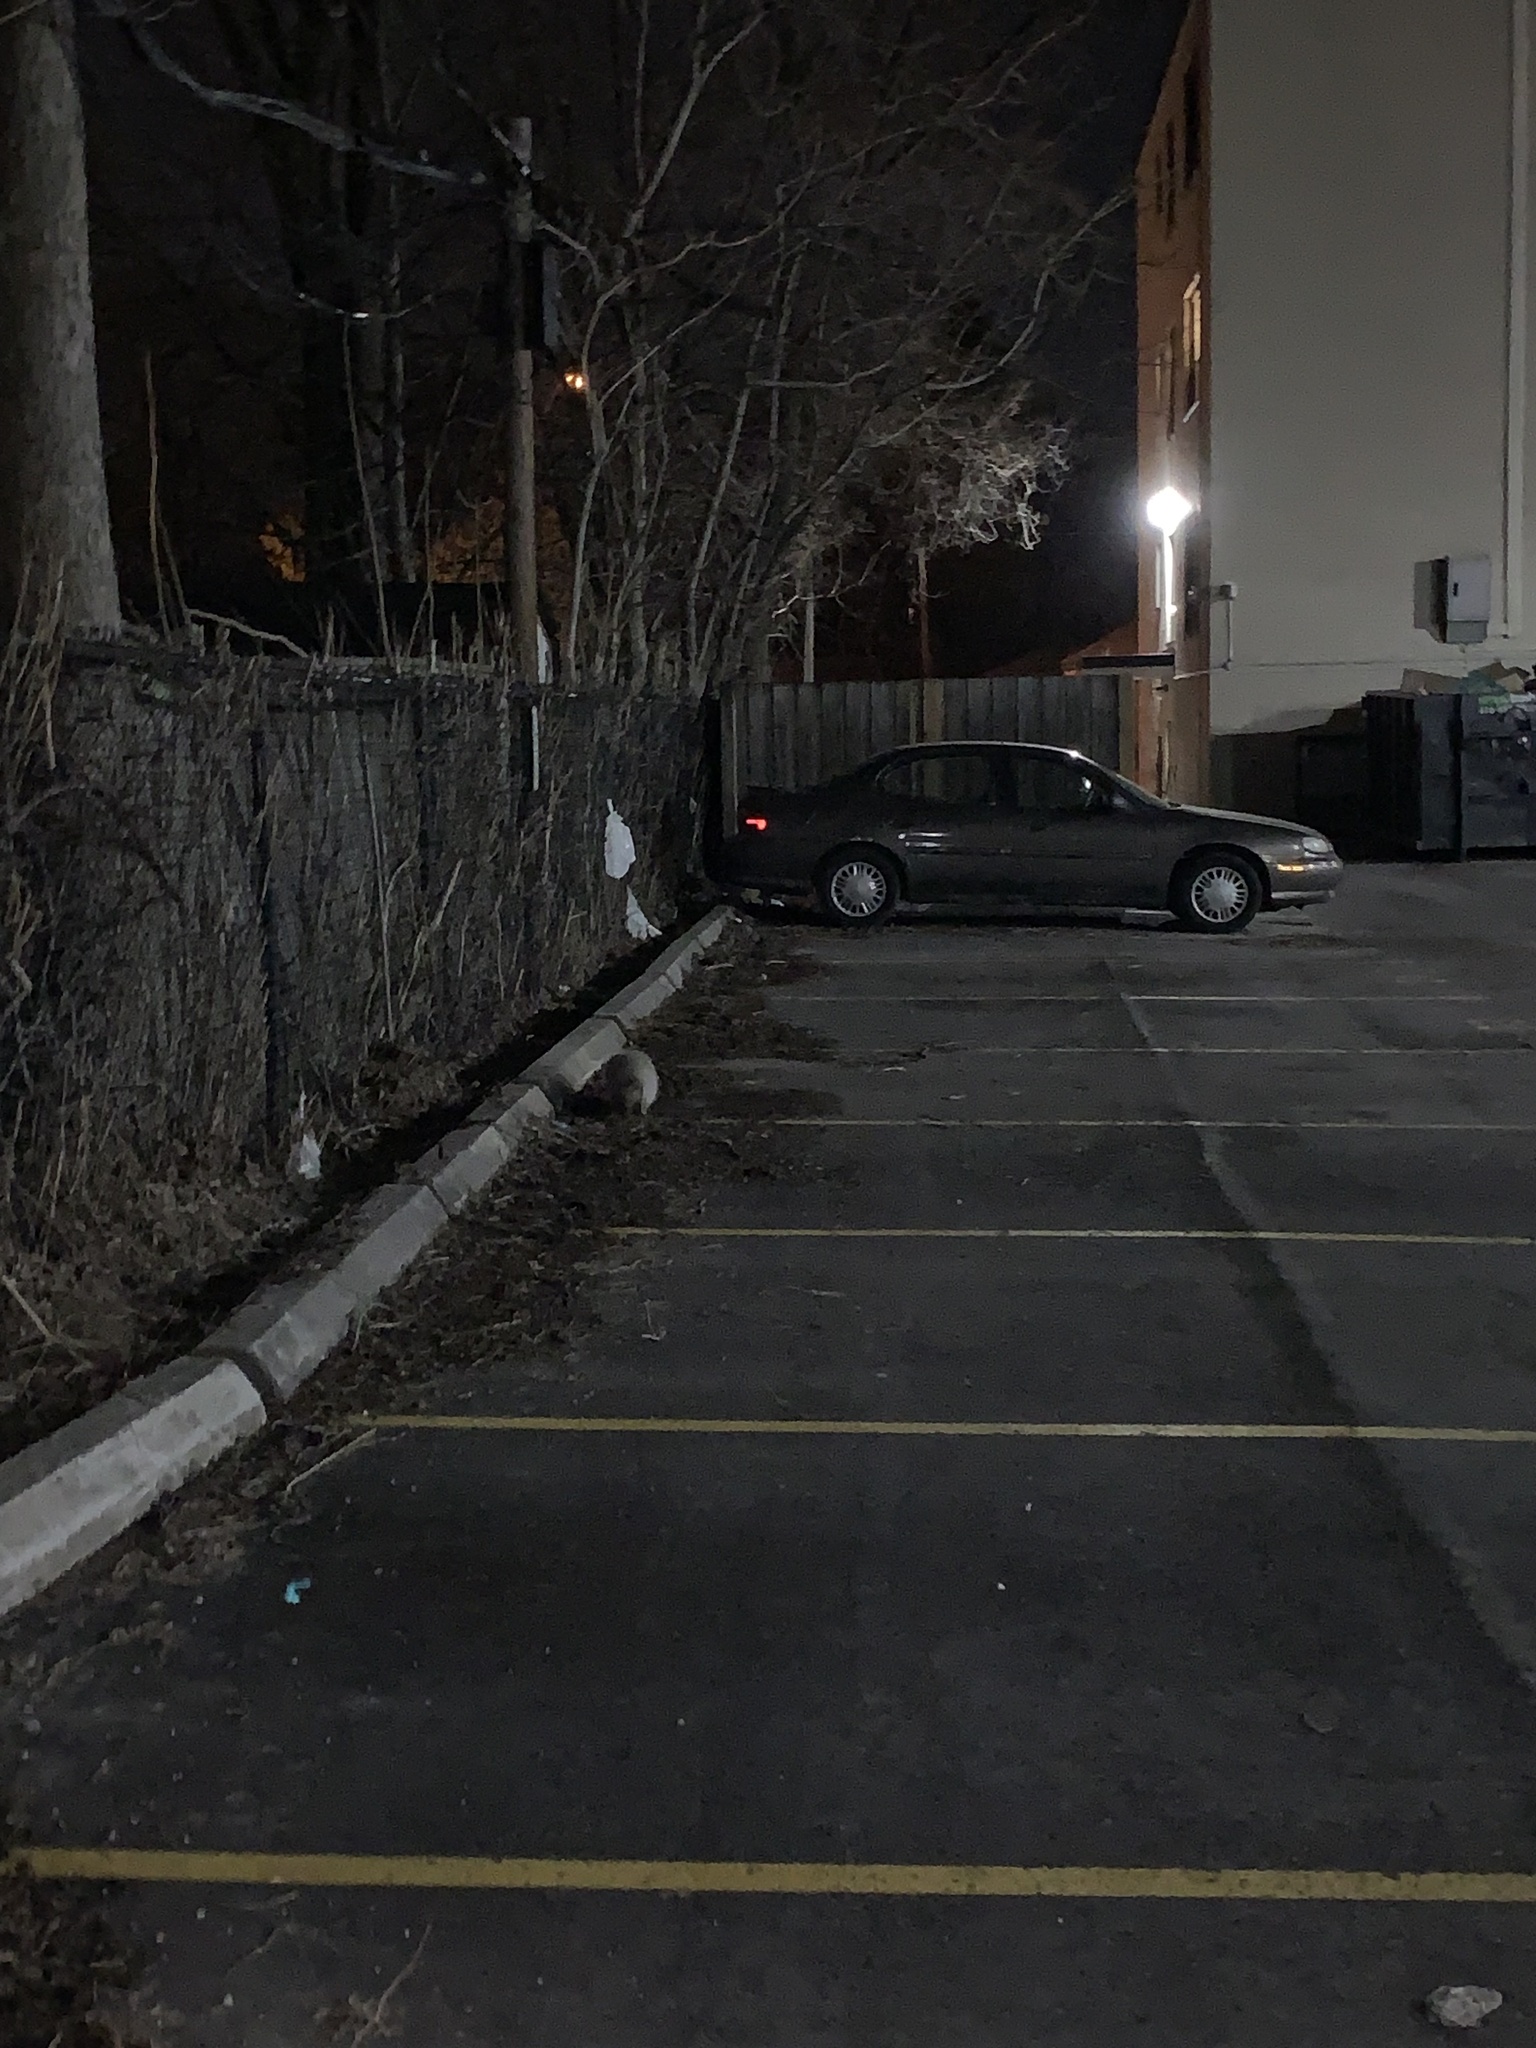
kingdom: Animalia
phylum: Chordata
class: Mammalia
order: Didelphimorphia
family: Didelphidae
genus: Didelphis
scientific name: Didelphis virginiana
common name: Virginia opossum
